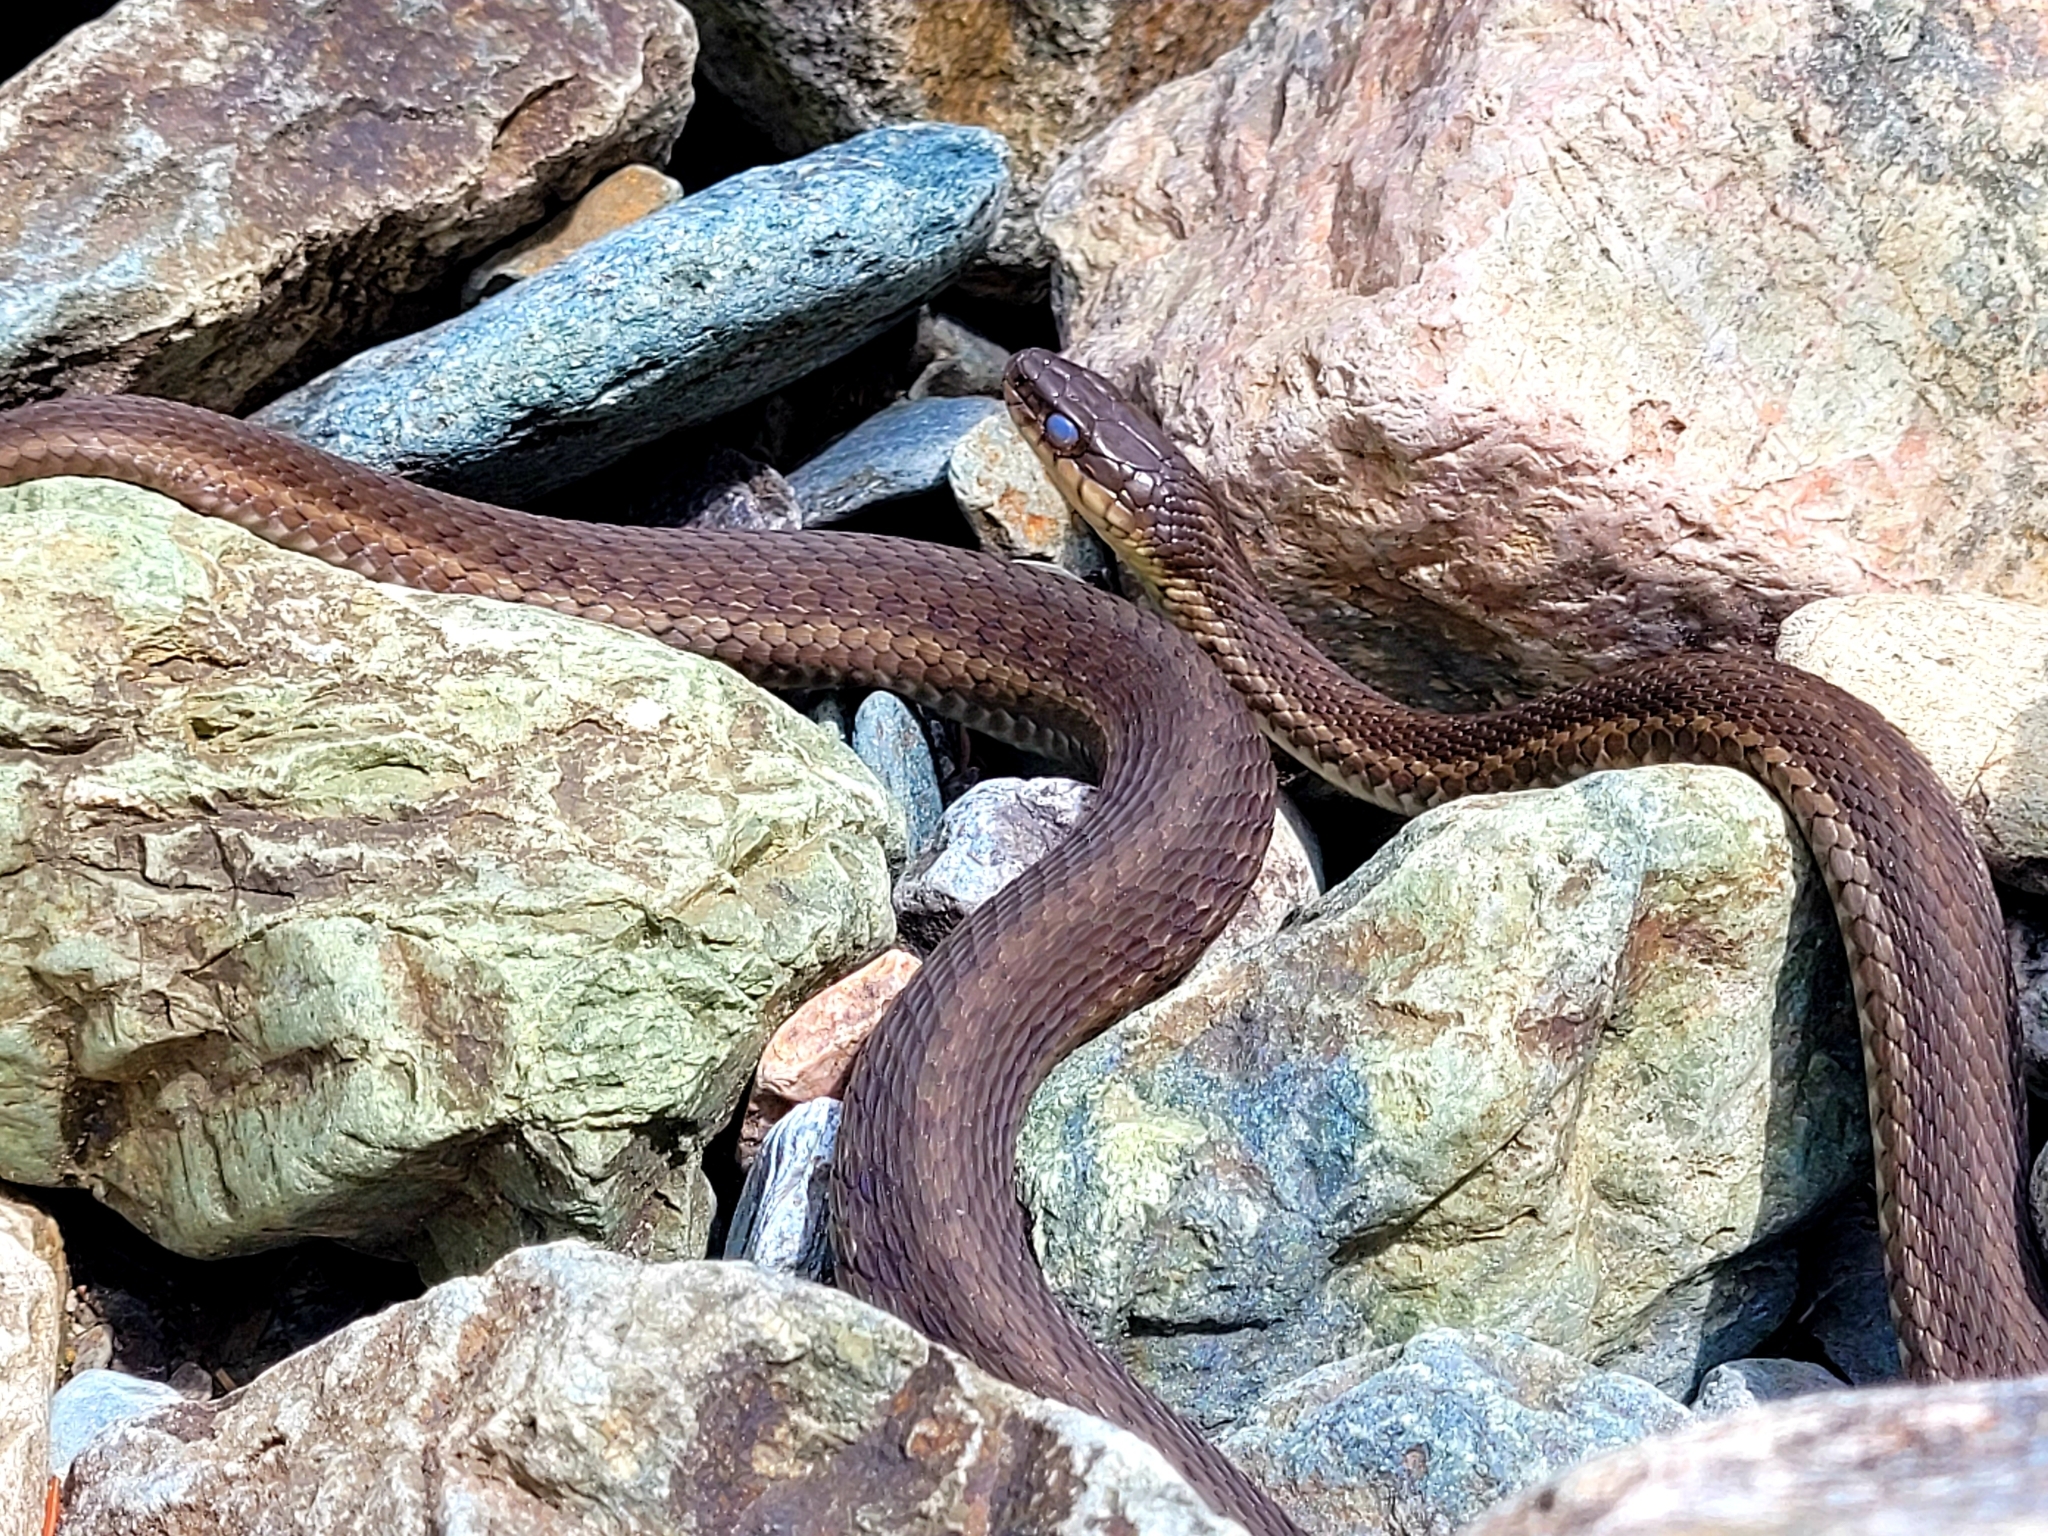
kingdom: Animalia
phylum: Chordata
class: Squamata
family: Colubridae
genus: Thamnophis
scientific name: Thamnophis sirtalis
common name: Common garter snake
